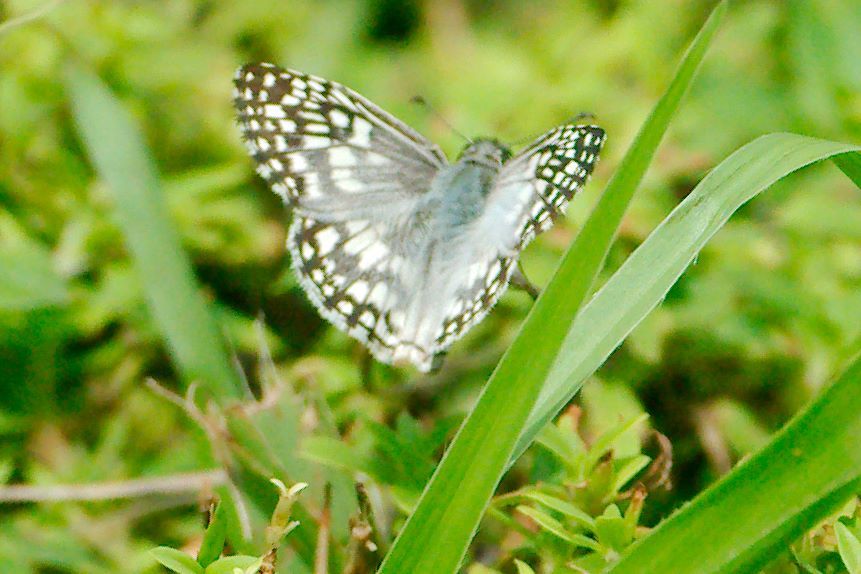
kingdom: Animalia
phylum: Arthropoda
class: Insecta
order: Lepidoptera
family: Hesperiidae
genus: Pyrgus
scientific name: Pyrgus oileus
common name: Tropical checkered-skipper
